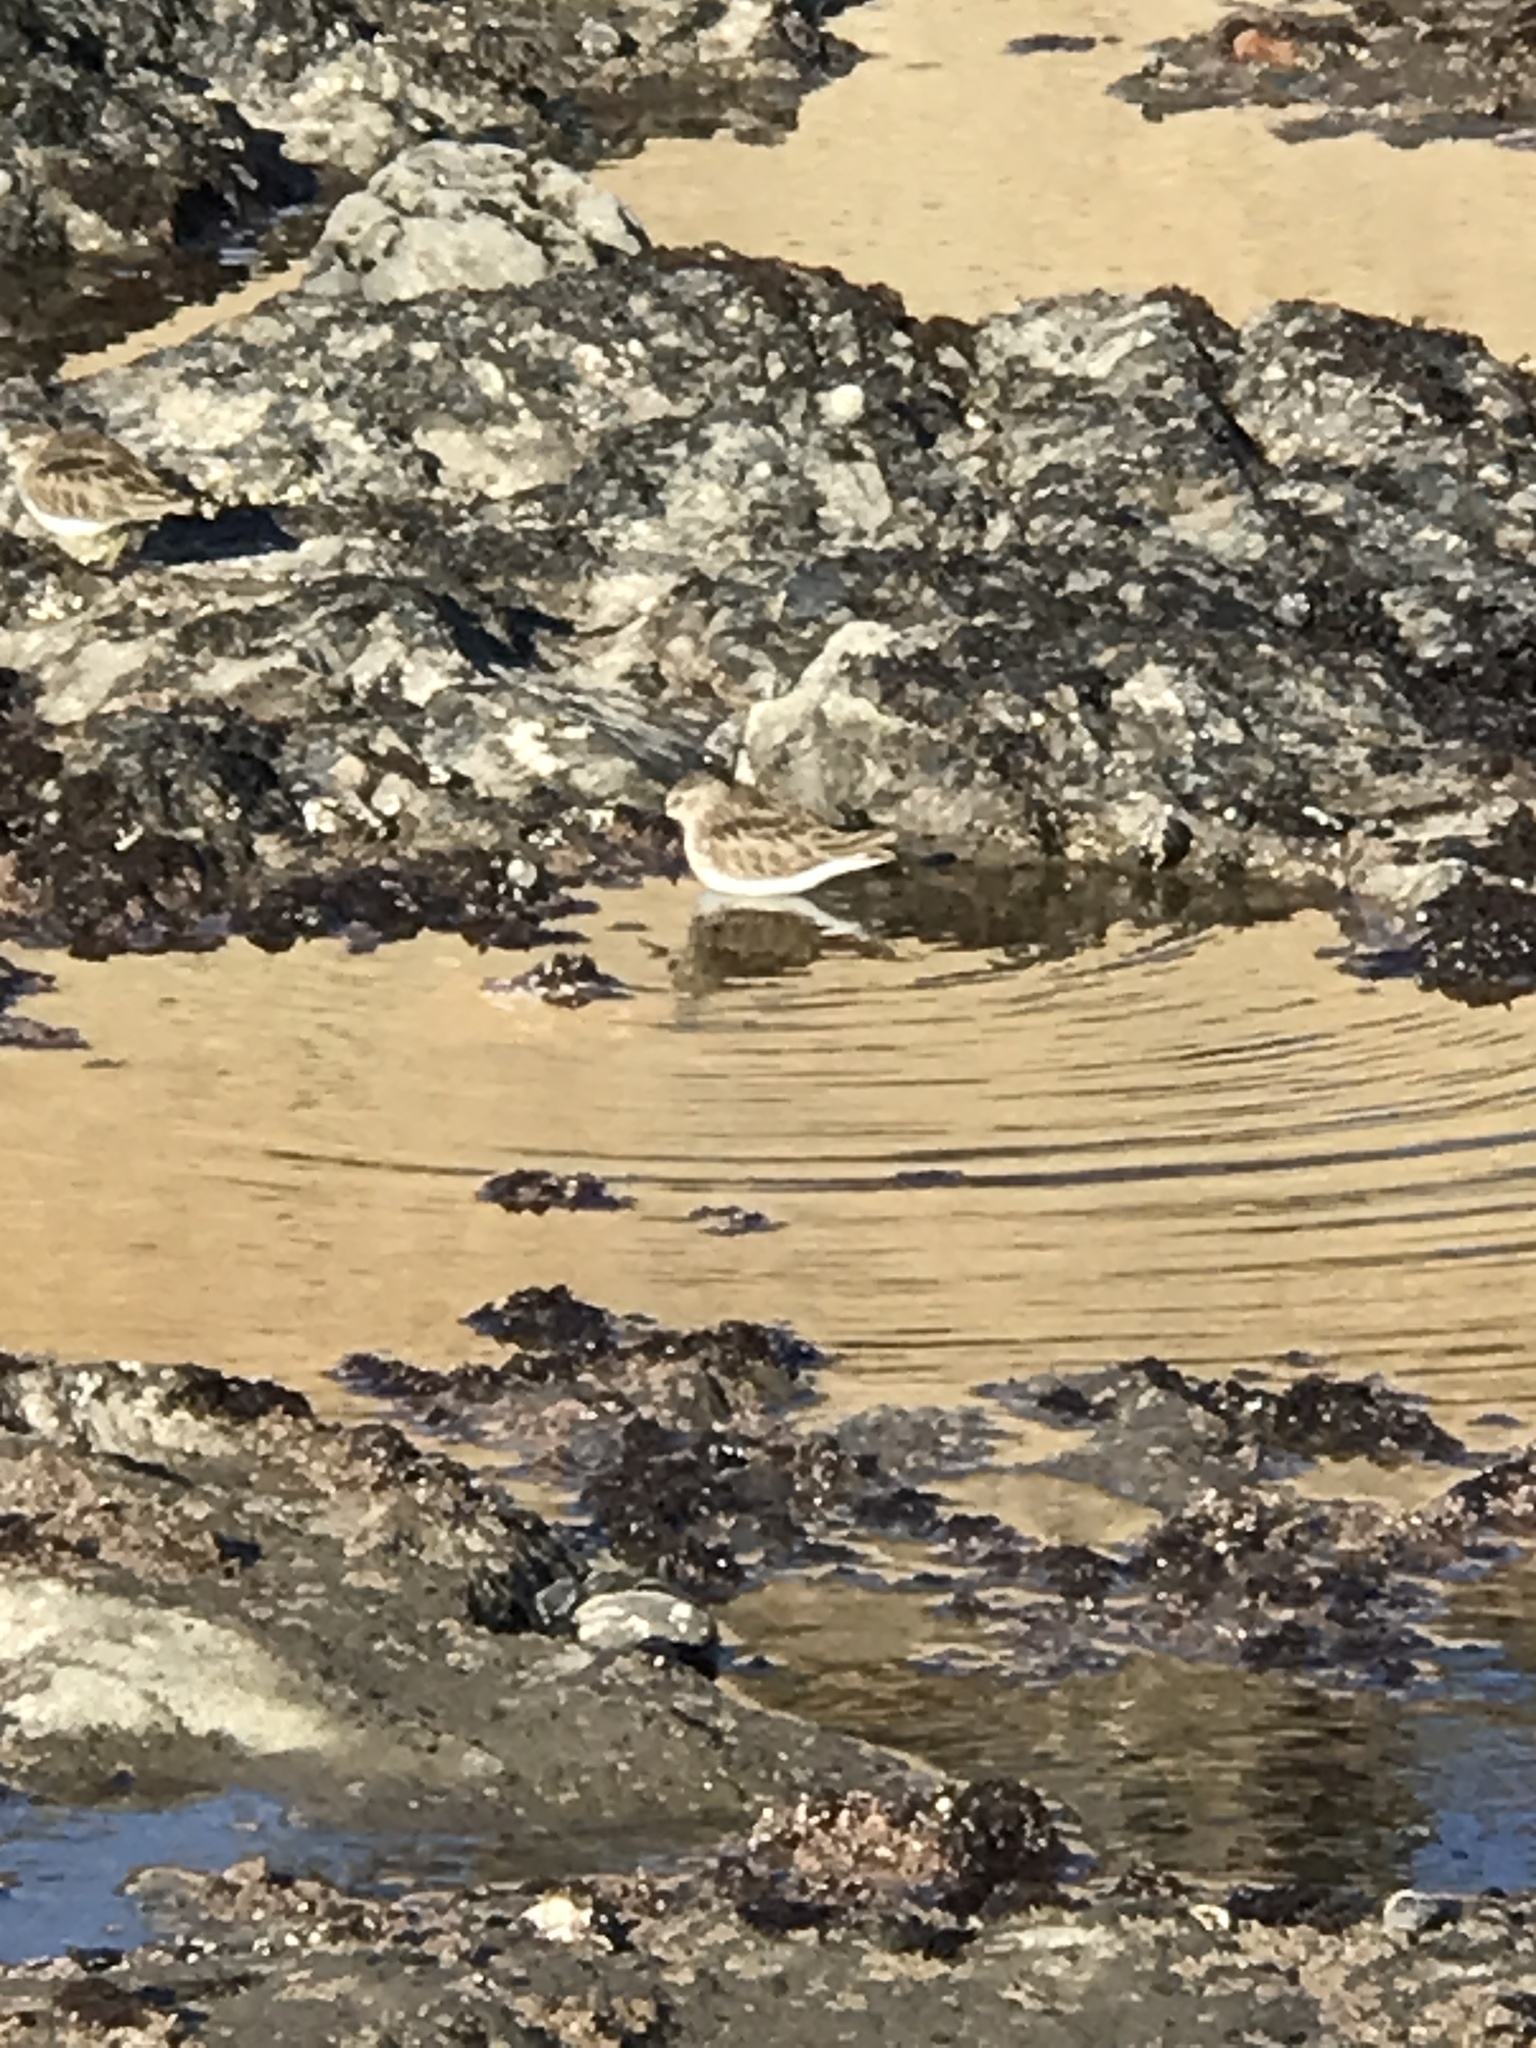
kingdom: Animalia
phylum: Chordata
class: Aves
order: Charadriiformes
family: Scolopacidae
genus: Calidris
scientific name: Calidris minutilla
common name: Least sandpiper
